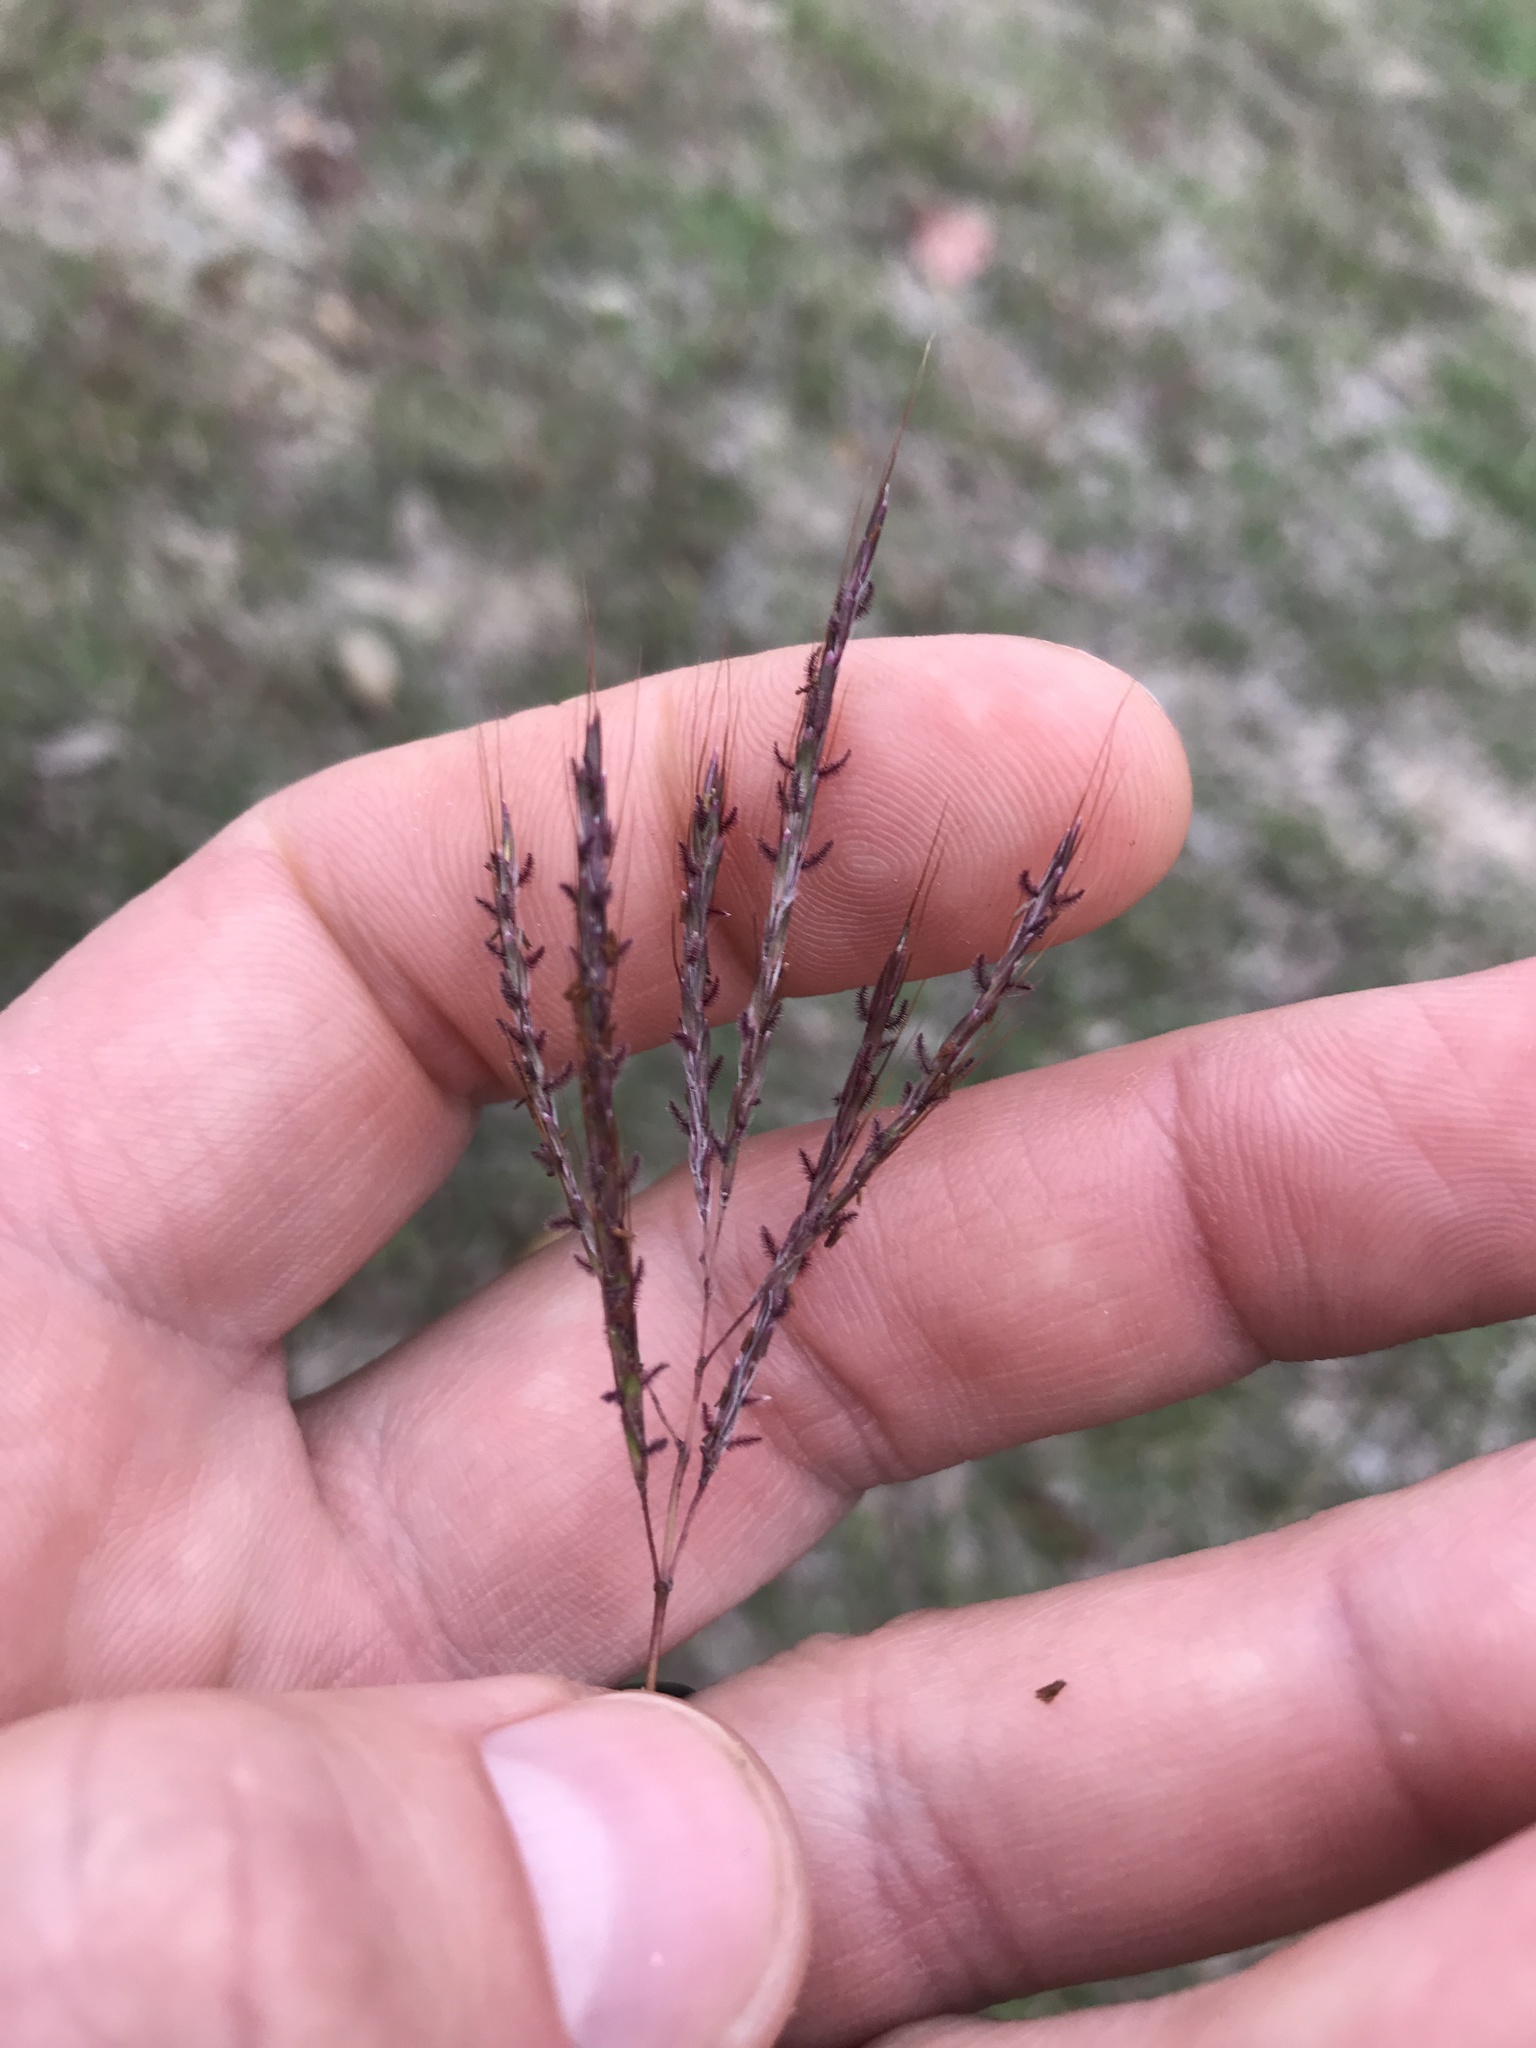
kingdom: Plantae
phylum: Tracheophyta
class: Liliopsida
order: Poales
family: Poaceae
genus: Bothriochloa
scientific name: Bothriochloa ischaemum
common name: Yellow bluestem
